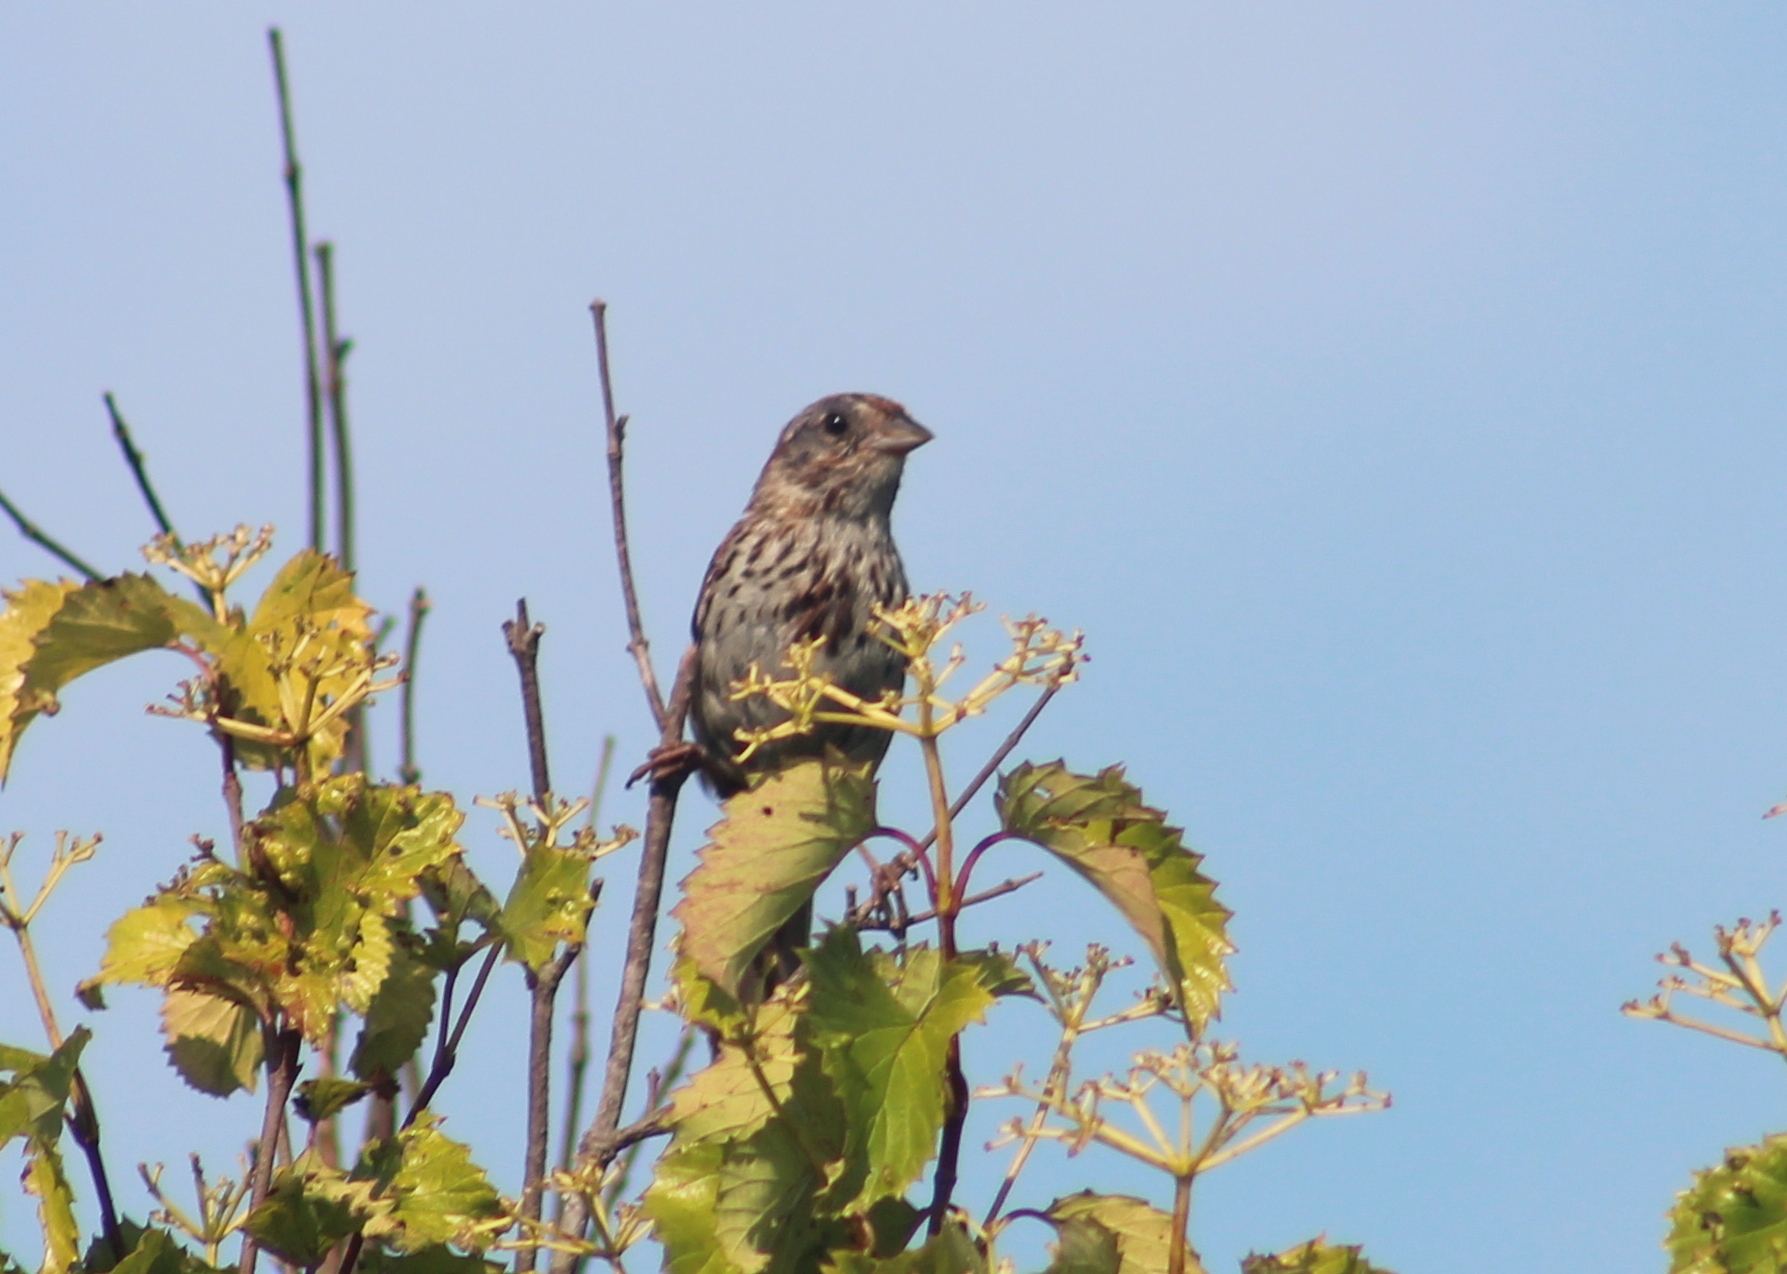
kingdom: Animalia
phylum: Chordata
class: Aves
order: Passeriformes
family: Passerellidae
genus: Melospiza
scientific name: Melospiza melodia
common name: Song sparrow
